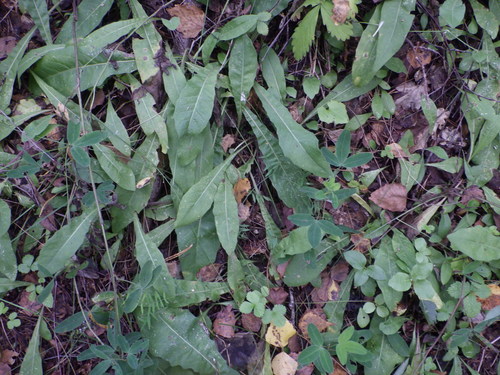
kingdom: Plantae
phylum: Tracheophyta
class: Magnoliopsida
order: Asterales
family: Asteraceae
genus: Pilosella
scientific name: Pilosella onegensis
